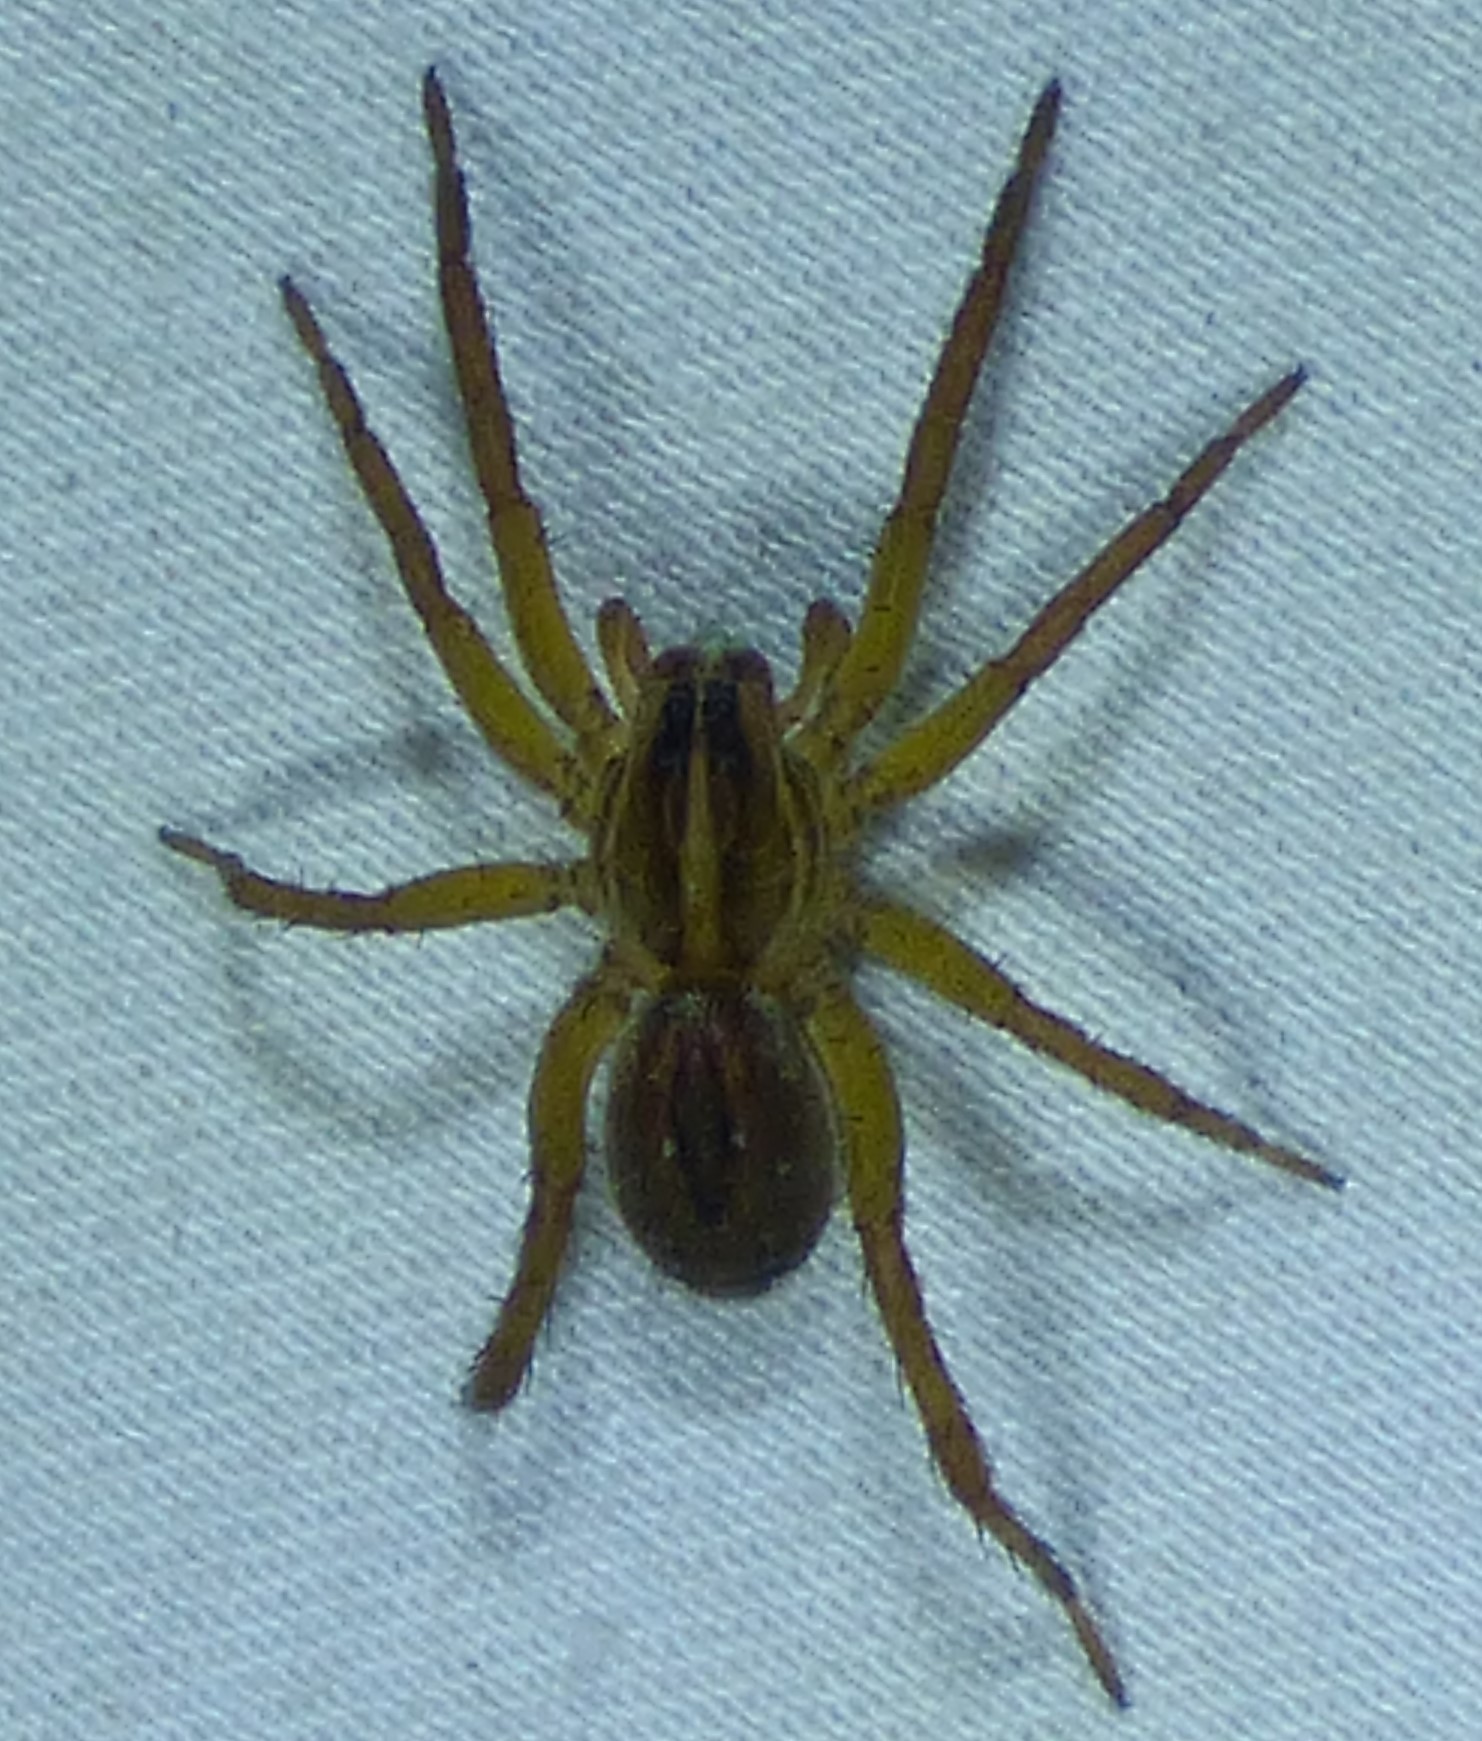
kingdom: Animalia
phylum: Arthropoda
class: Arachnida
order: Araneae
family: Lycosidae
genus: Tigrosa
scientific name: Tigrosa annexa
